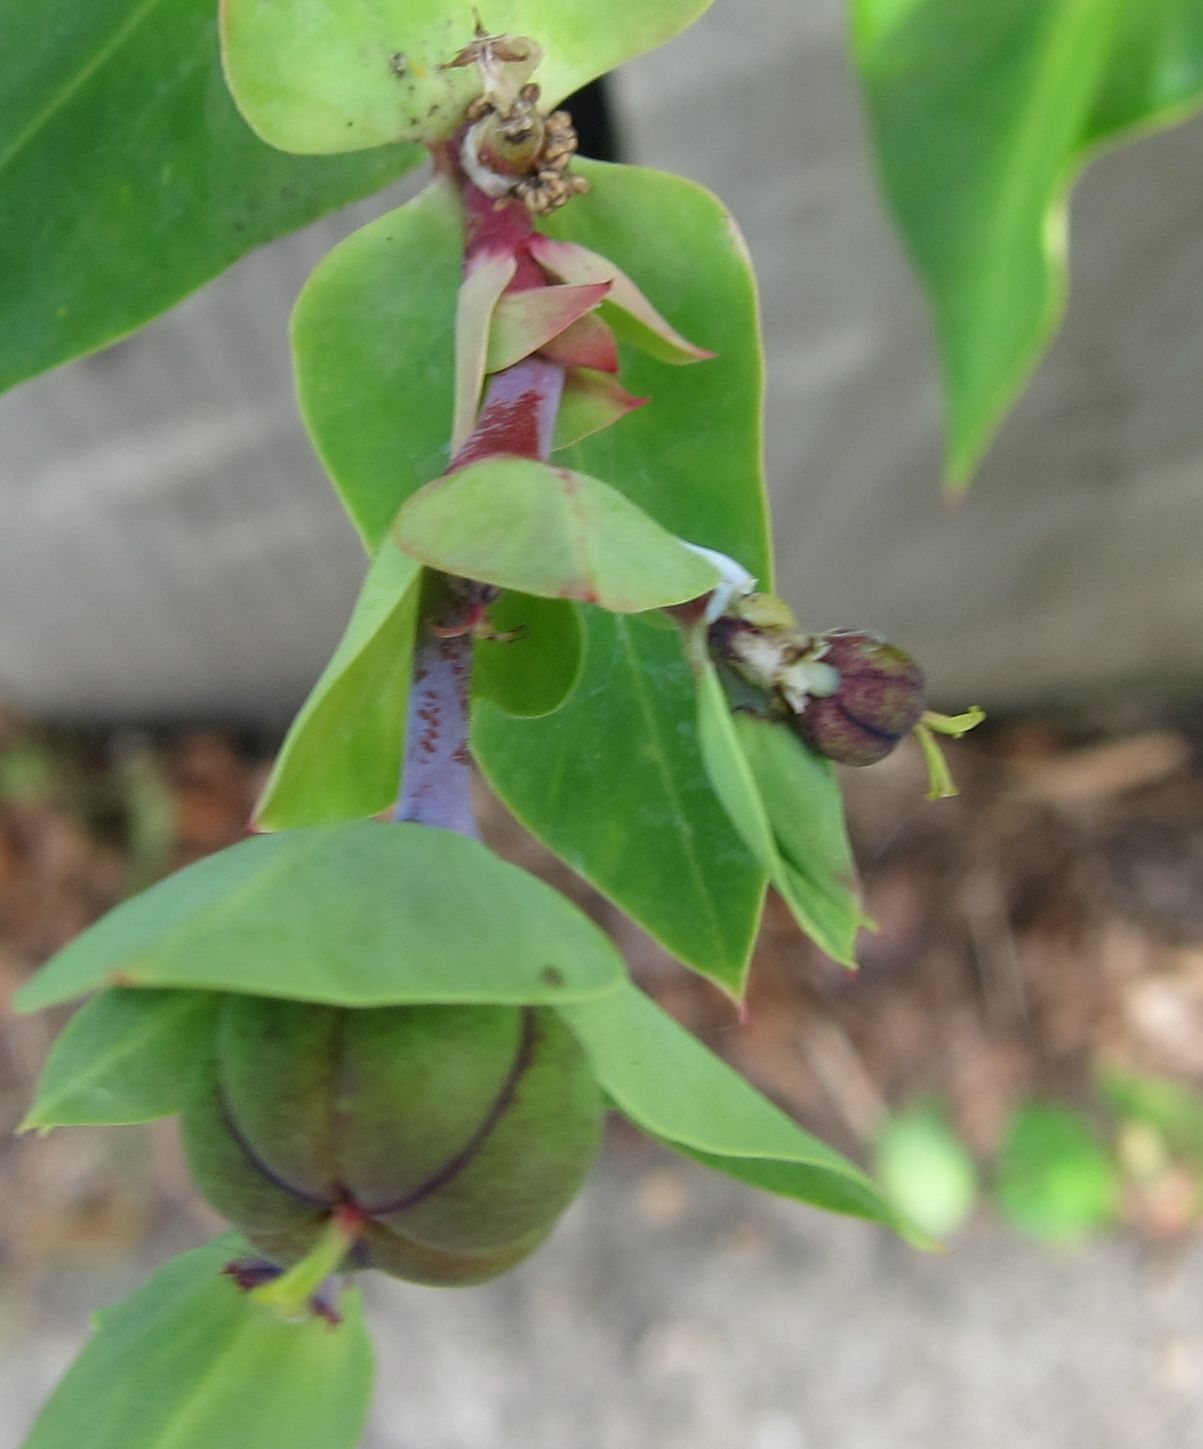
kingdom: Plantae
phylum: Tracheophyta
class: Magnoliopsida
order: Malpighiales
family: Euphorbiaceae
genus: Euphorbia
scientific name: Euphorbia lathyris
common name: Caper spurge
